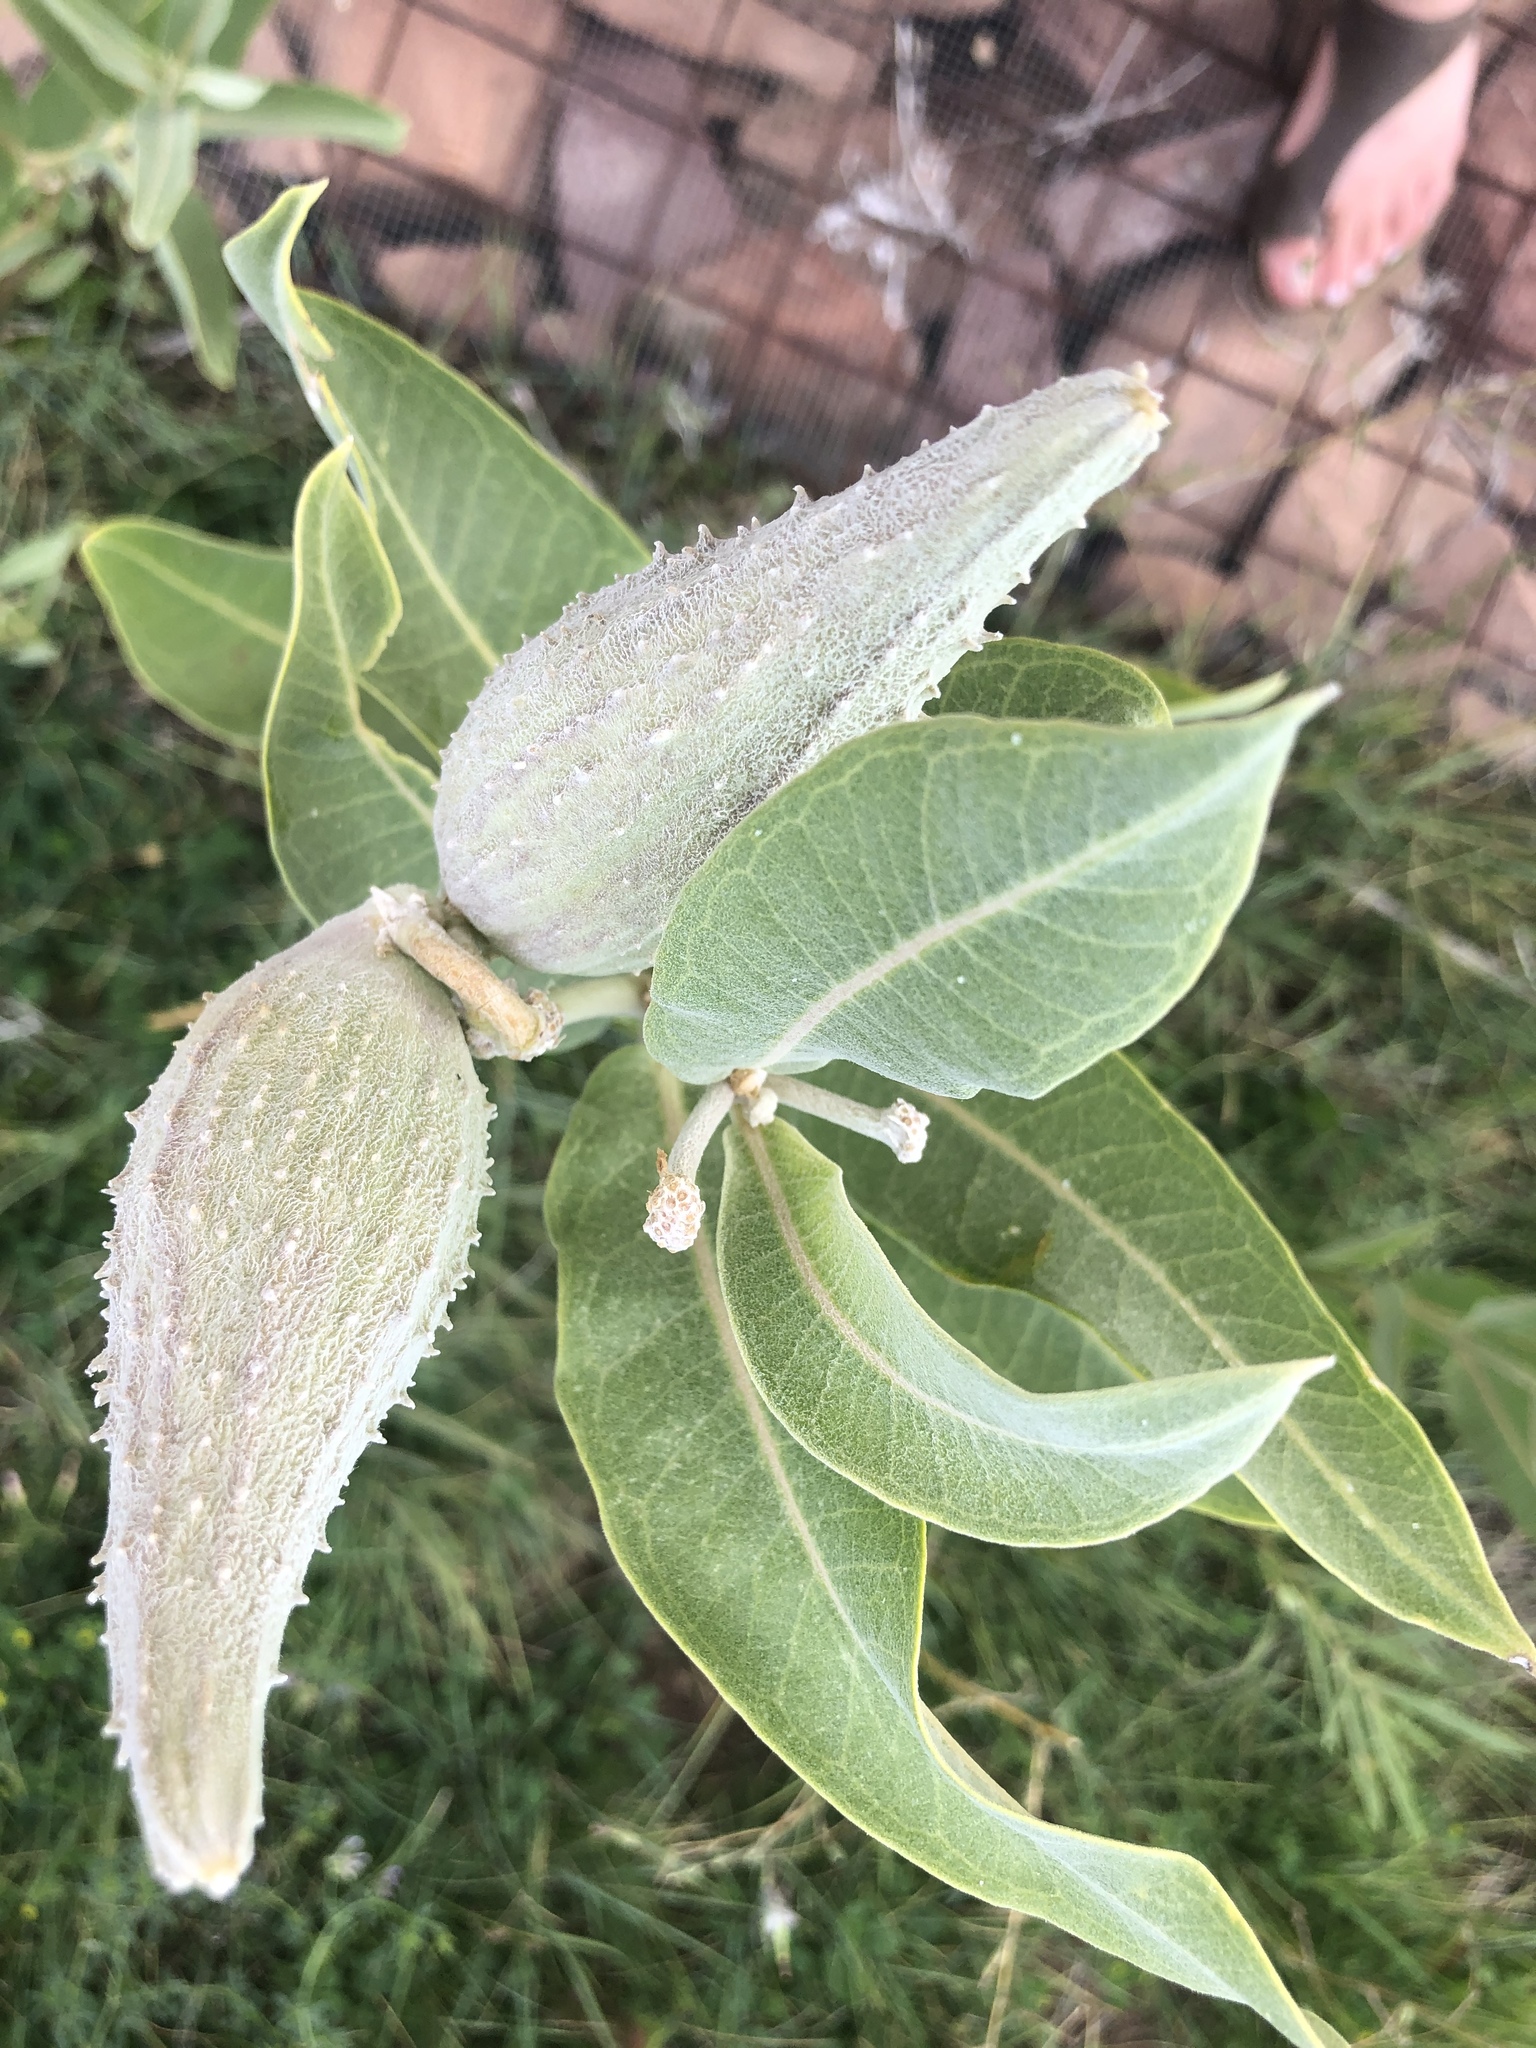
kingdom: Plantae
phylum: Tracheophyta
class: Magnoliopsida
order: Gentianales
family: Apocynaceae
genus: Asclepias
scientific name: Asclepias speciosa
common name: Showy milkweed
